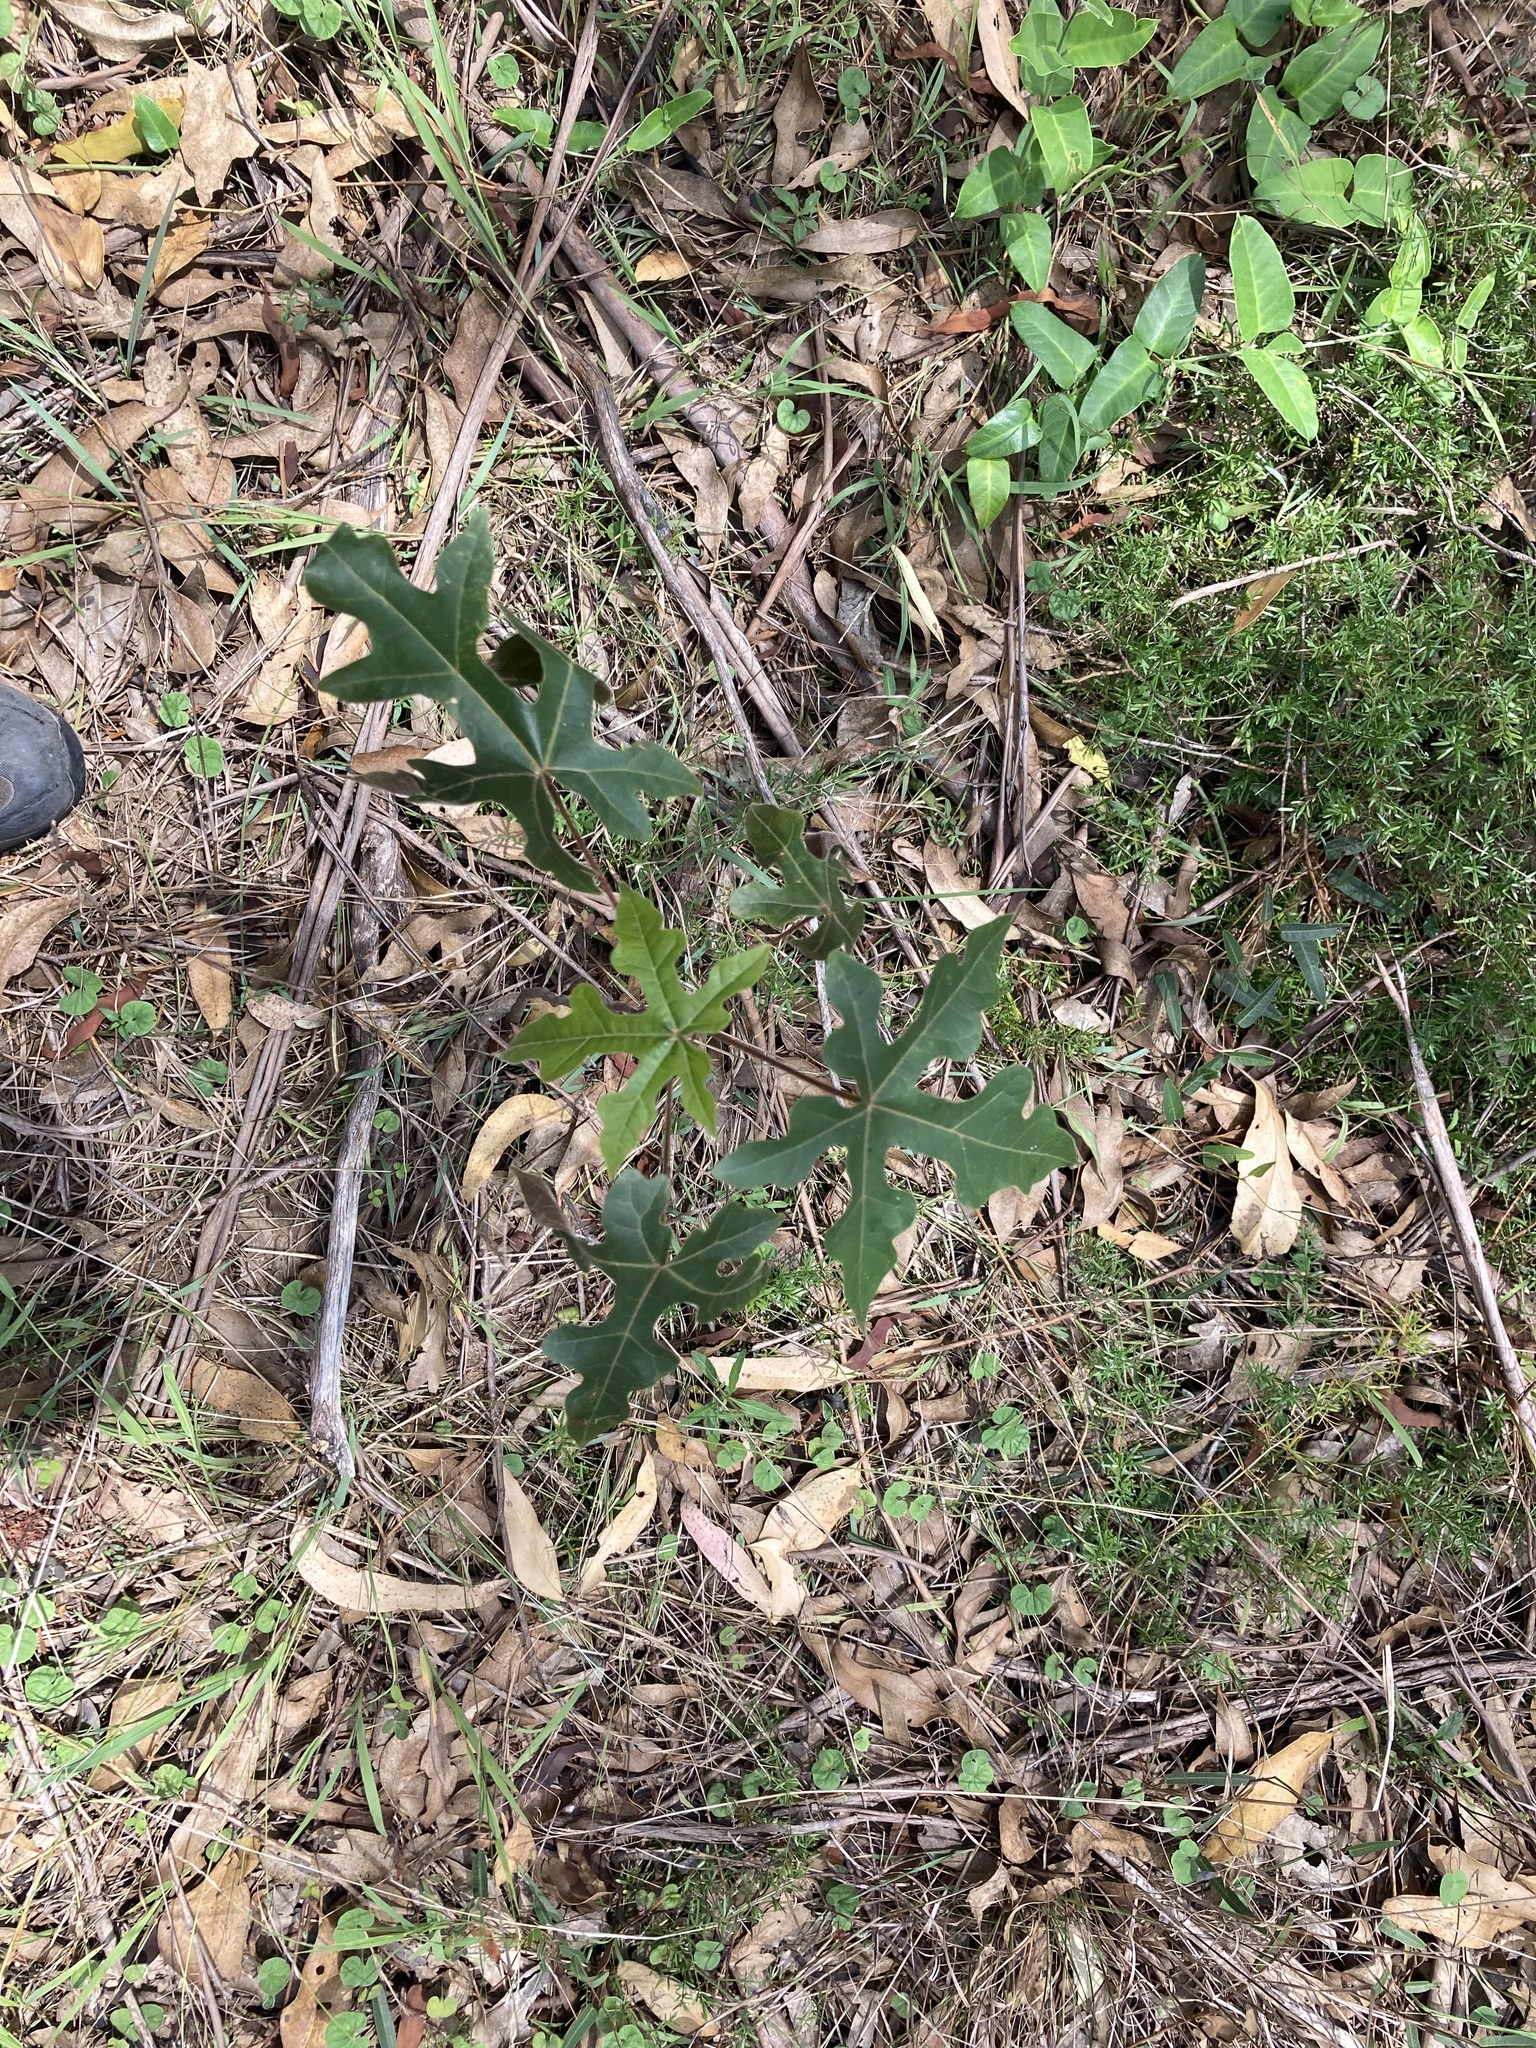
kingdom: Plantae
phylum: Tracheophyta
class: Magnoliopsida
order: Malvales
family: Malvaceae
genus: Brachychiton
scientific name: Brachychiton discolor
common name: Queensland lacebark
